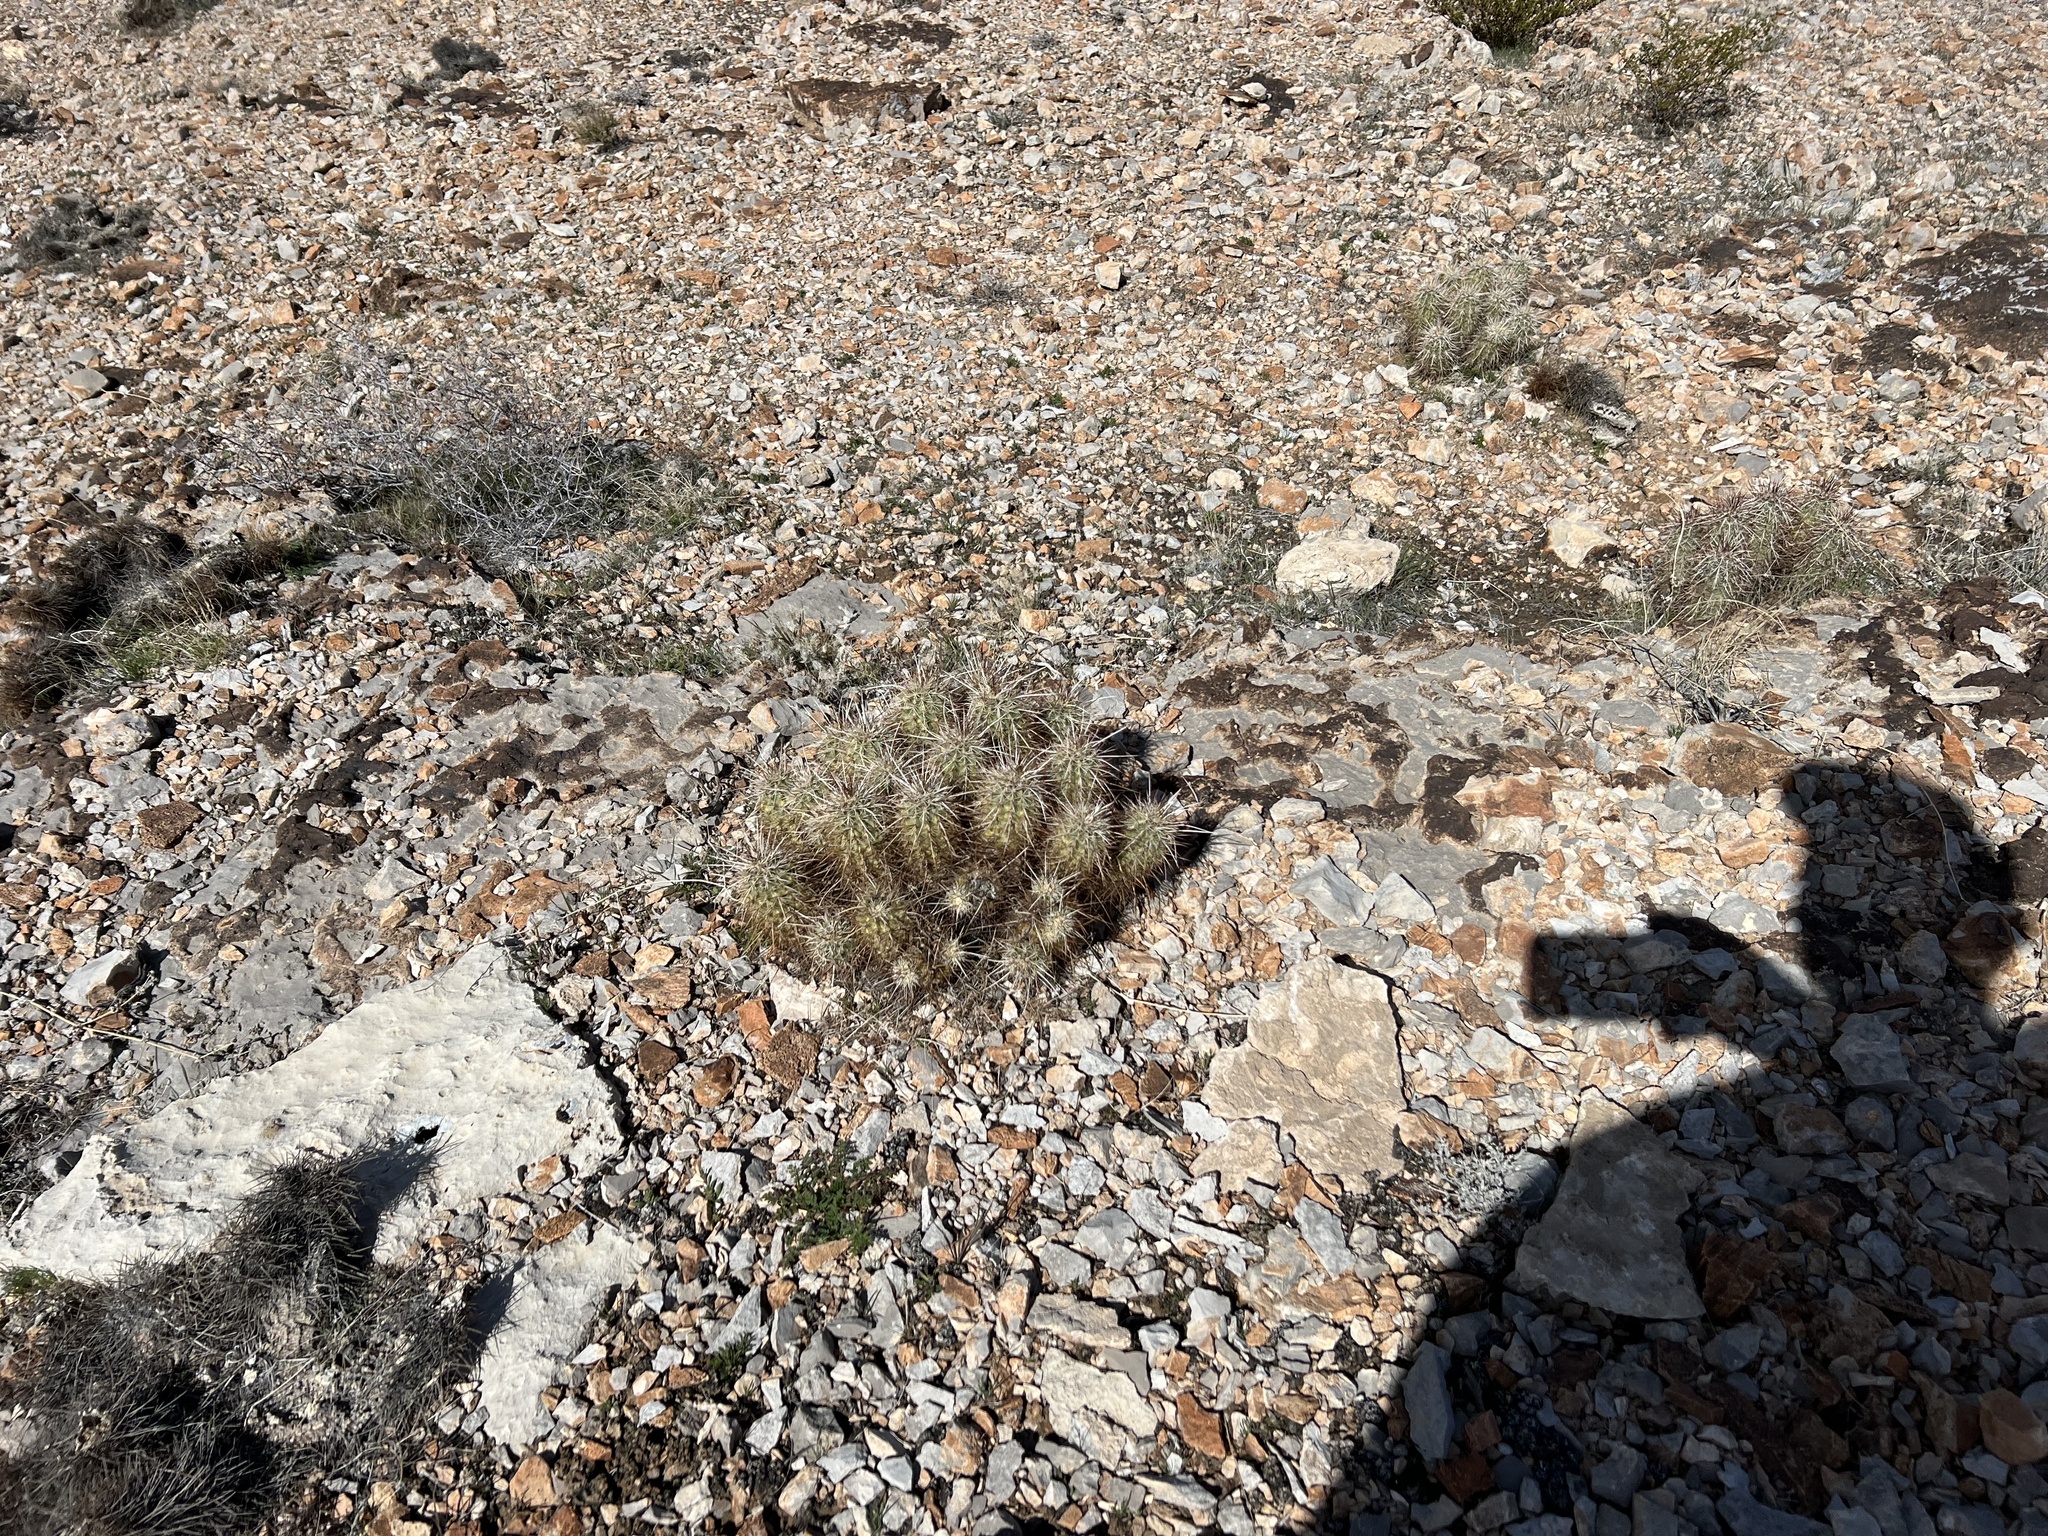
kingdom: Plantae
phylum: Tracheophyta
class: Magnoliopsida
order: Caryophyllales
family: Cactaceae
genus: Echinocereus
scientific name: Echinocereus engelmannii
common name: Engelmann's hedgehog cactus
